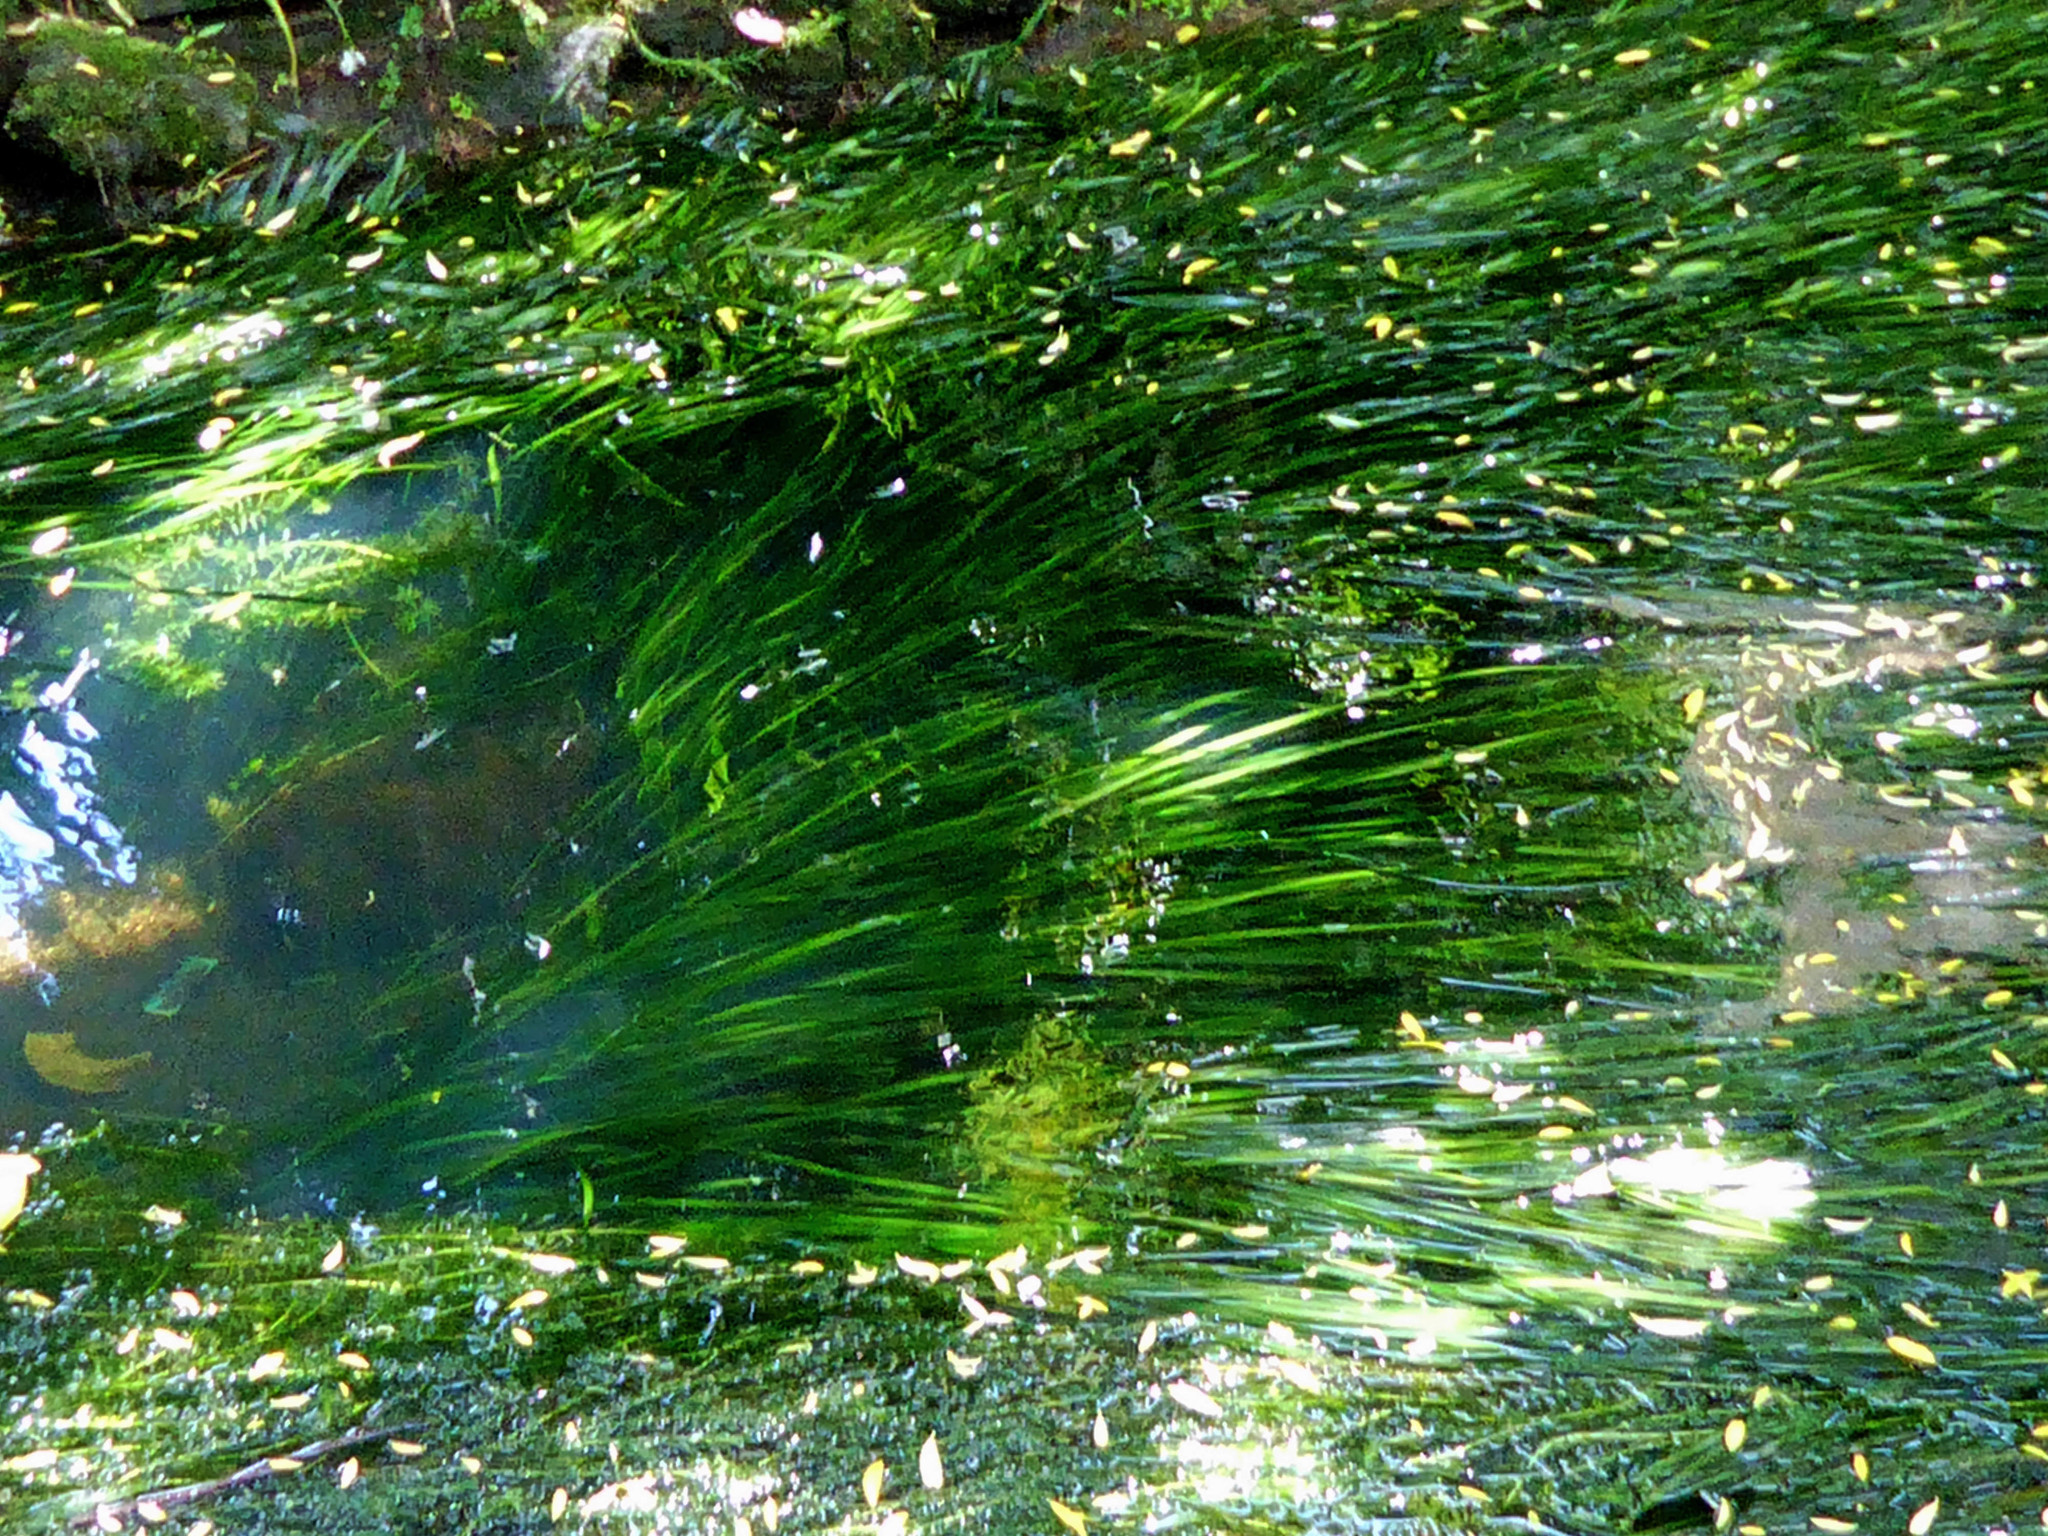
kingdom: Plantae
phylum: Tracheophyta
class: Liliopsida
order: Alismatales
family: Hydrocharitaceae
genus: Vallisneria
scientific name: Vallisneria australis
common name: Australian eelgrass
